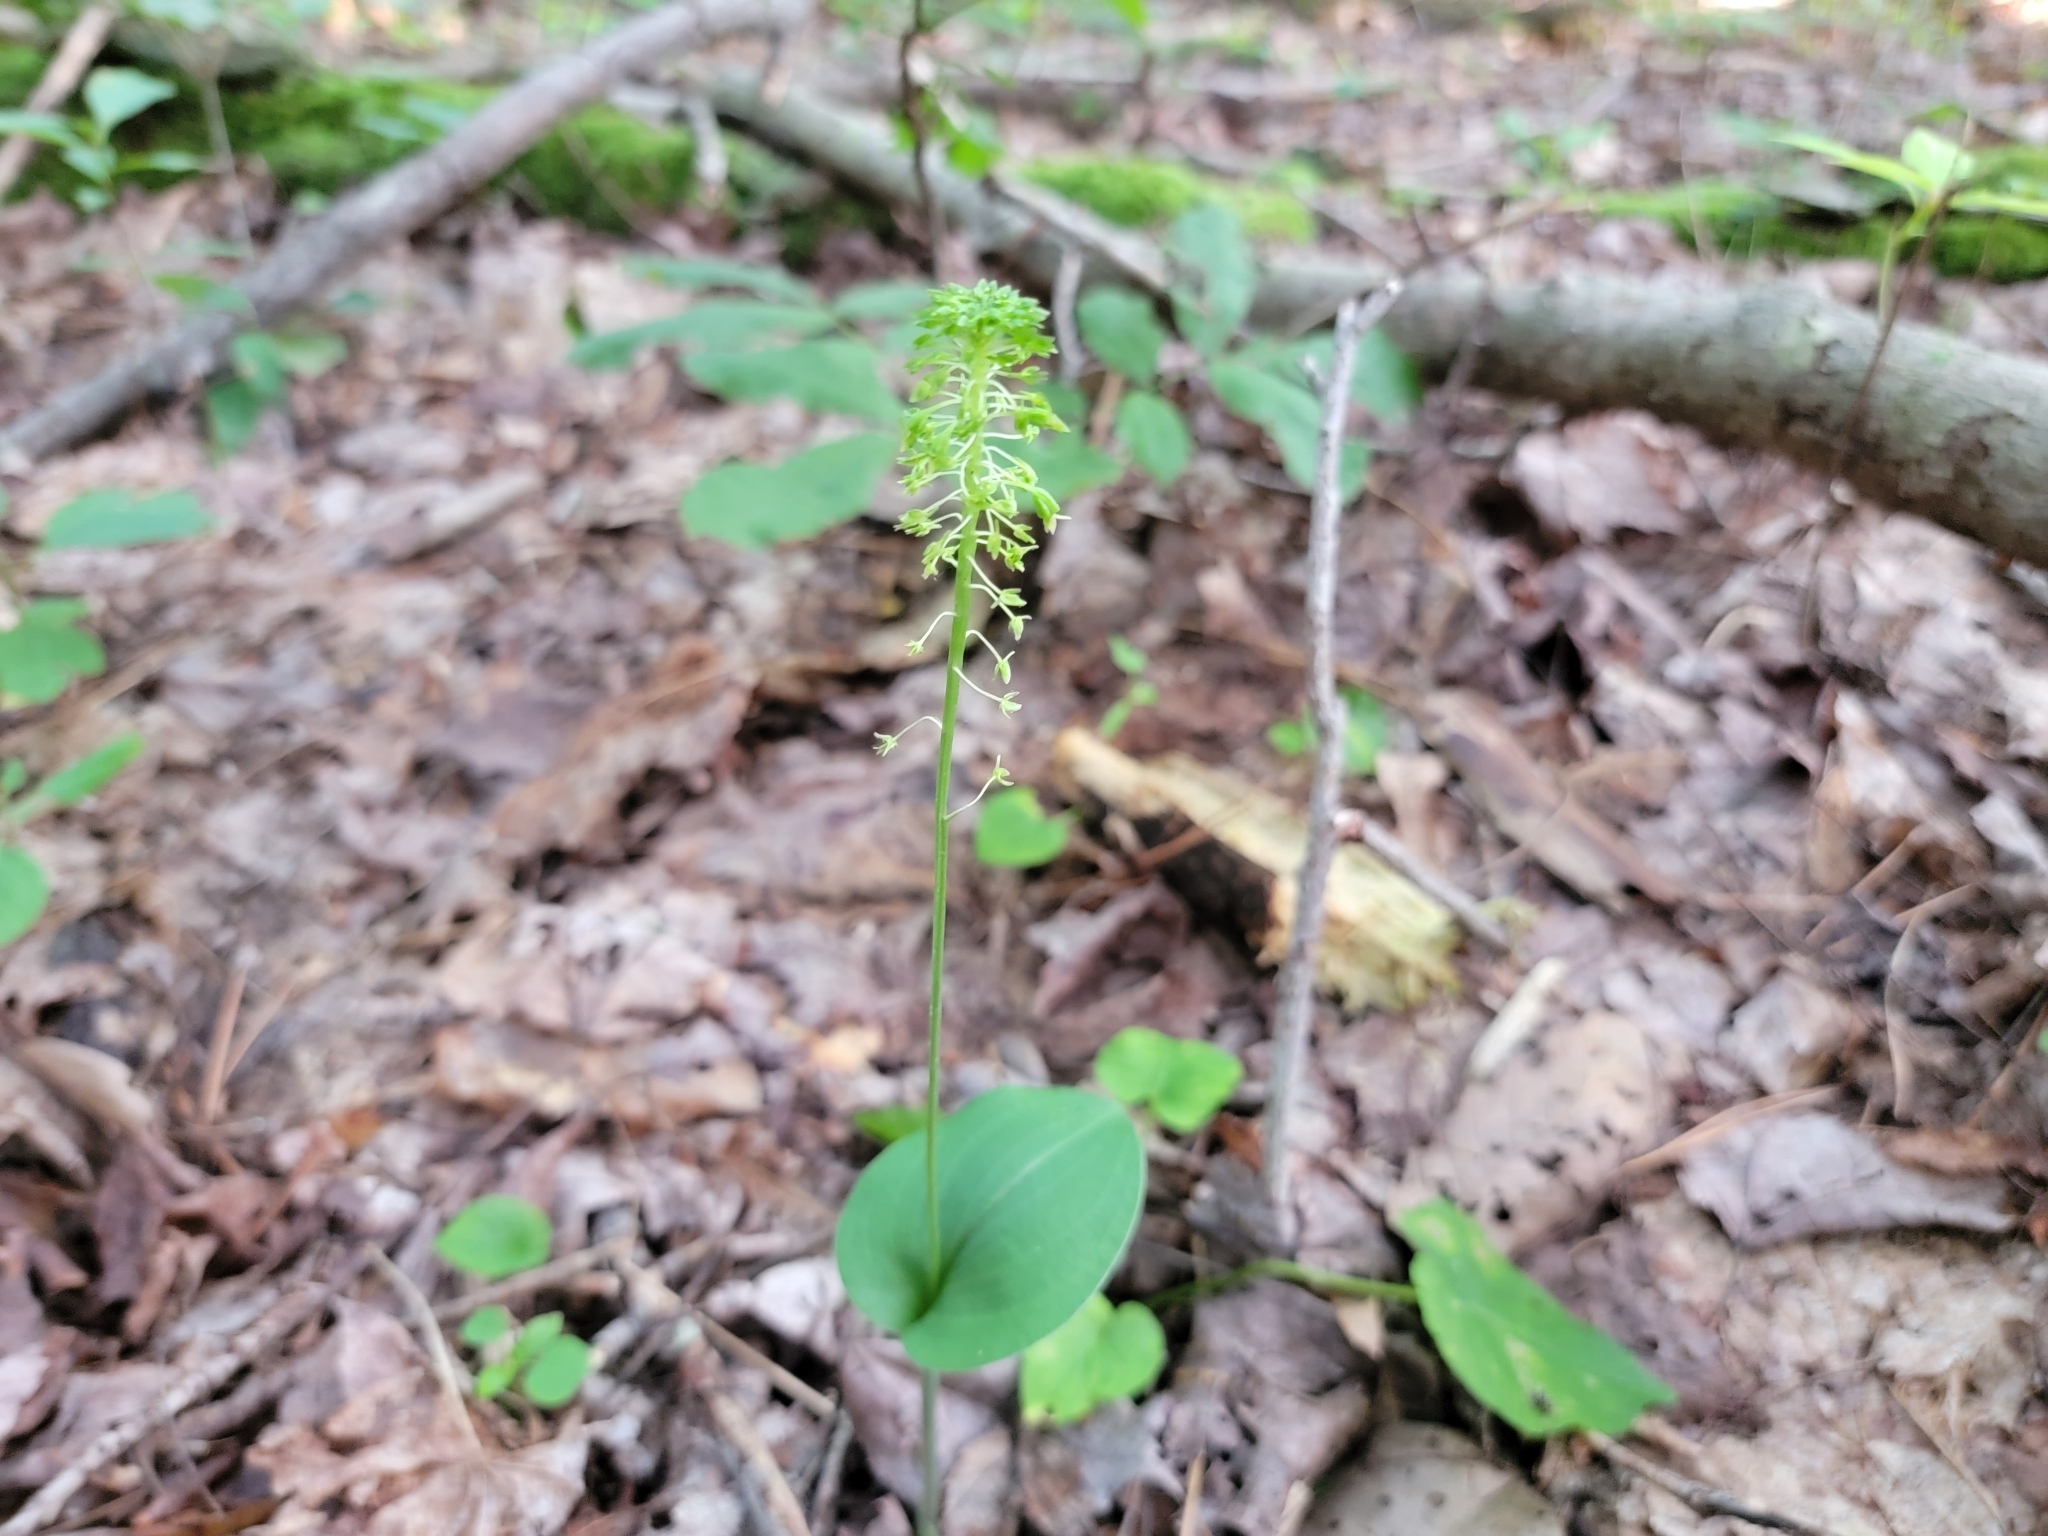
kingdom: Plantae
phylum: Tracheophyta
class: Liliopsida
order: Asparagales
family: Orchidaceae
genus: Malaxis
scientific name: Malaxis unifolia
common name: Green adder's-mouth
